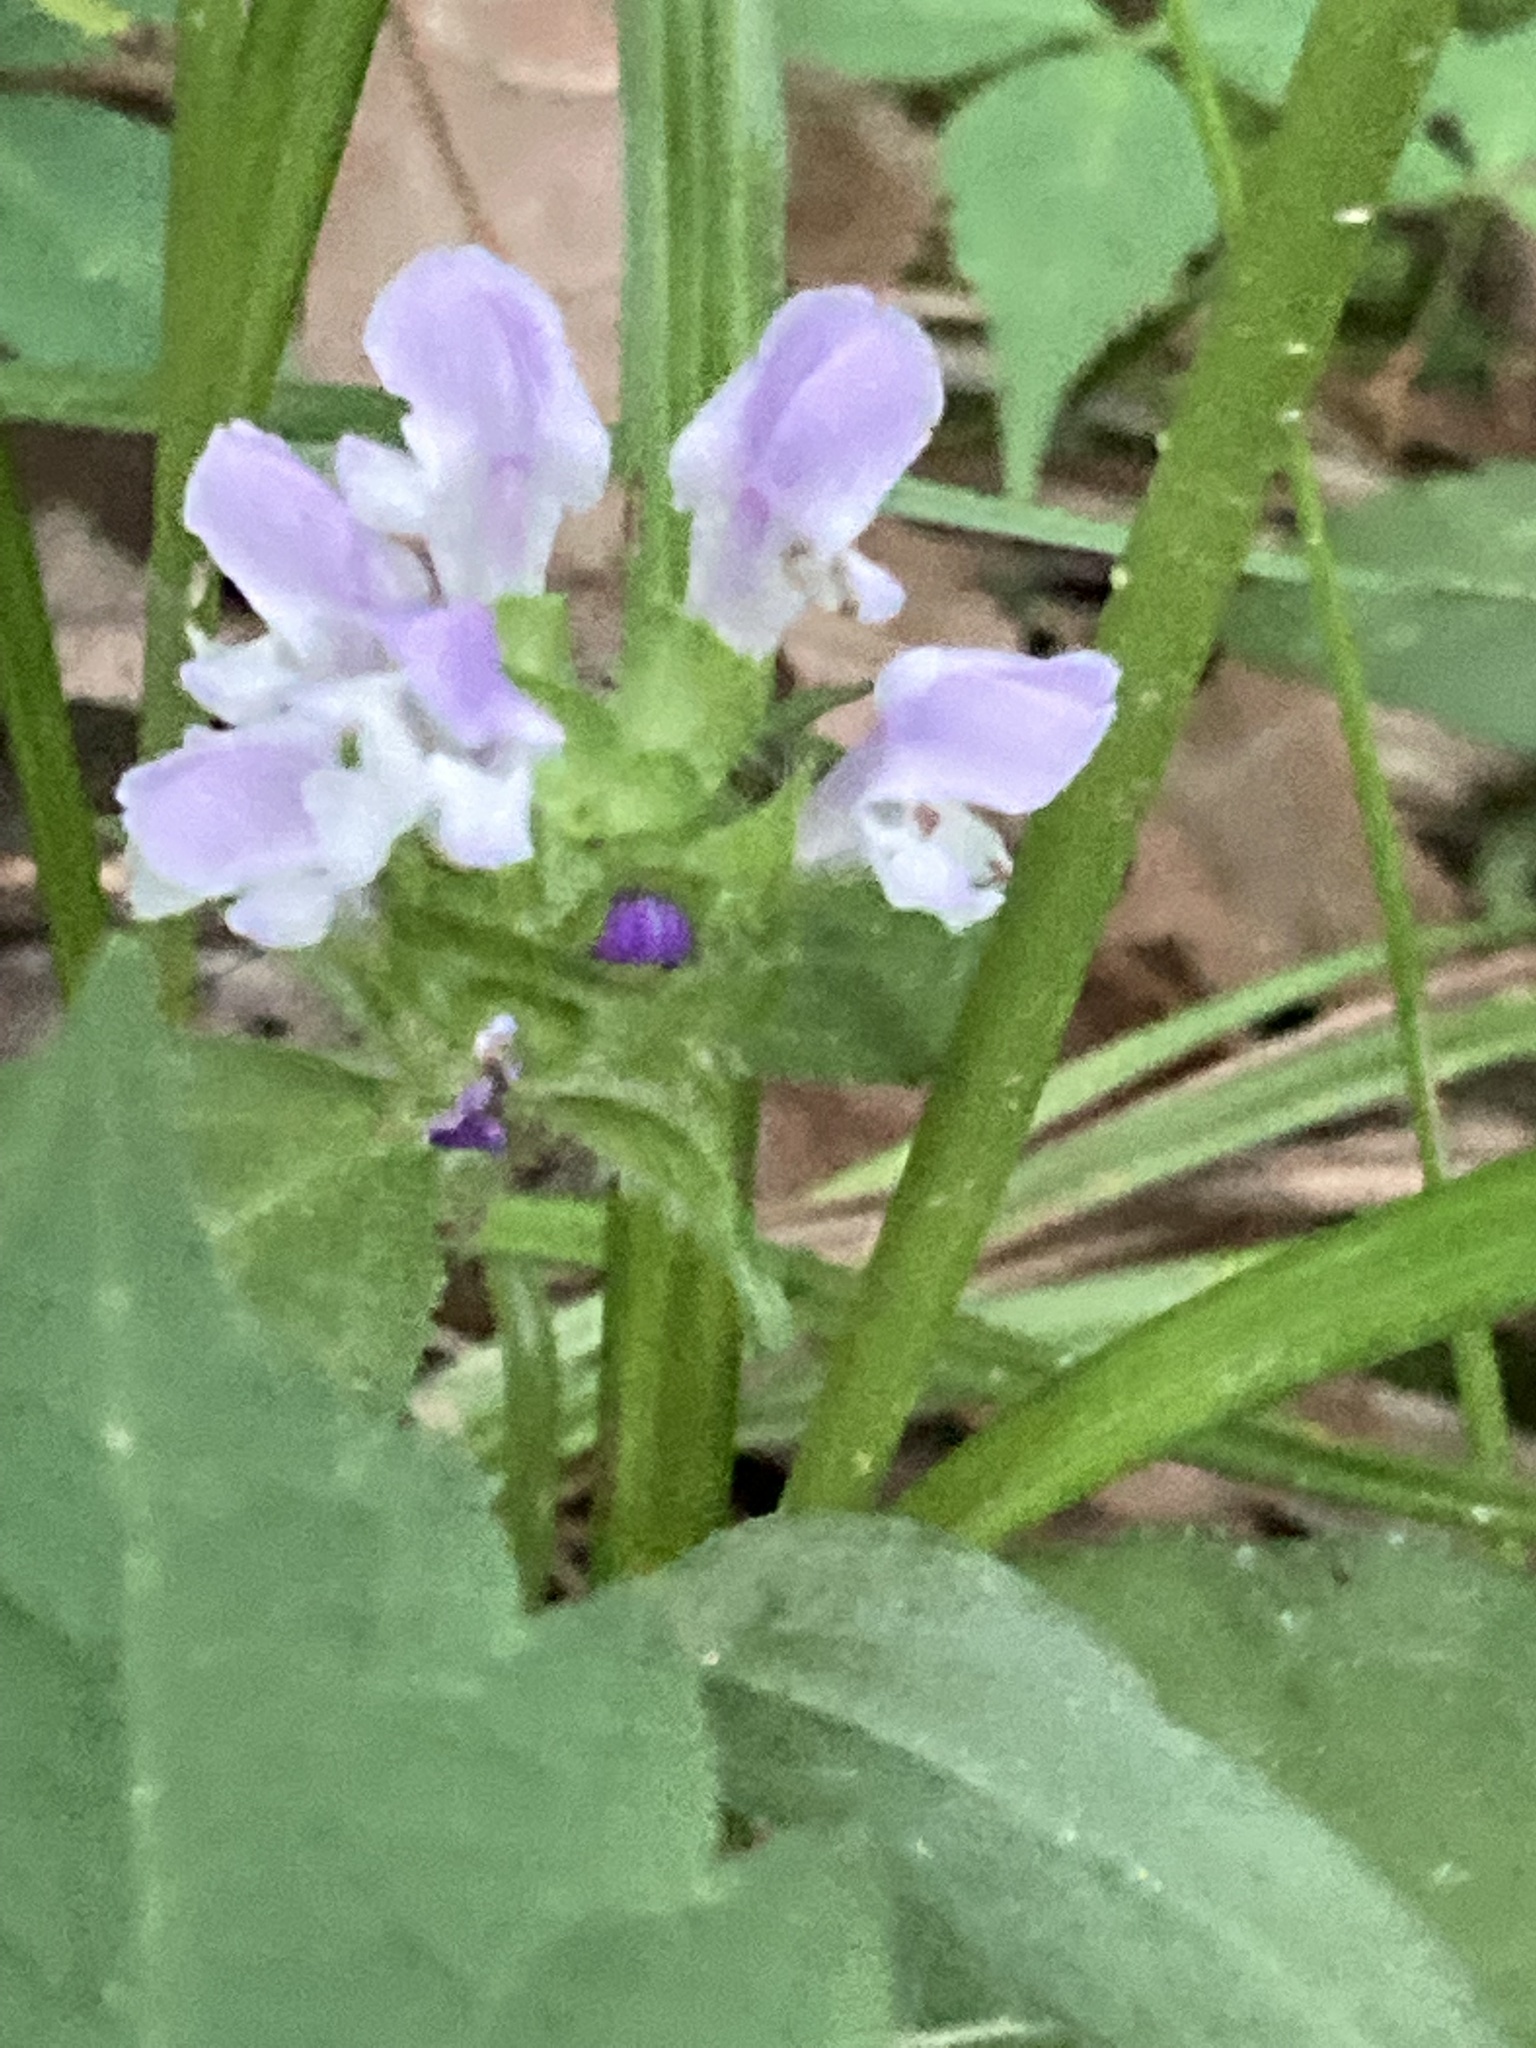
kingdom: Plantae
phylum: Tracheophyta
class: Magnoliopsida
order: Lamiales
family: Lamiaceae
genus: Prunella
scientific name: Prunella vulgaris
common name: Heal-all
